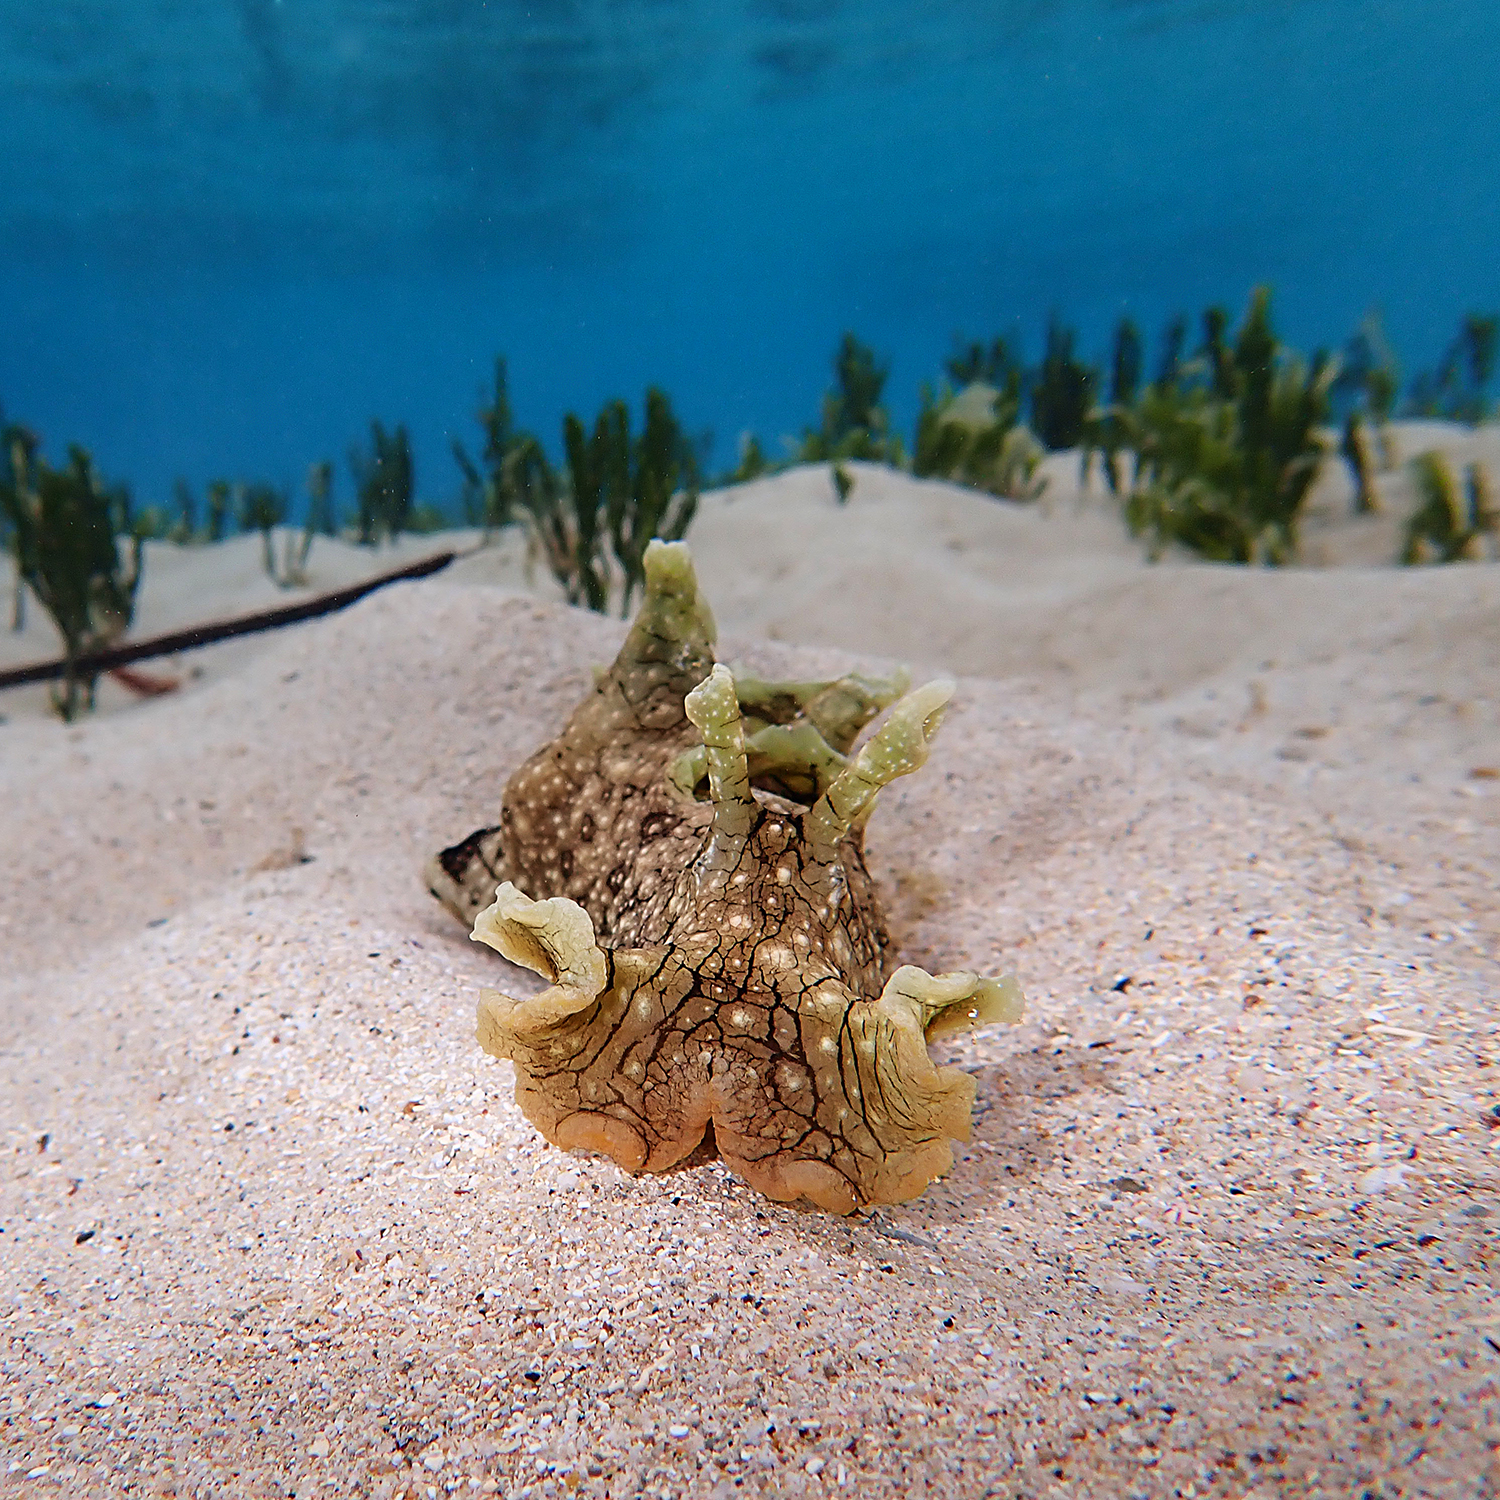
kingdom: Animalia
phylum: Mollusca
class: Gastropoda
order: Aplysiida
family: Aplysiidae
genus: Aplysia
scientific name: Aplysia argus
